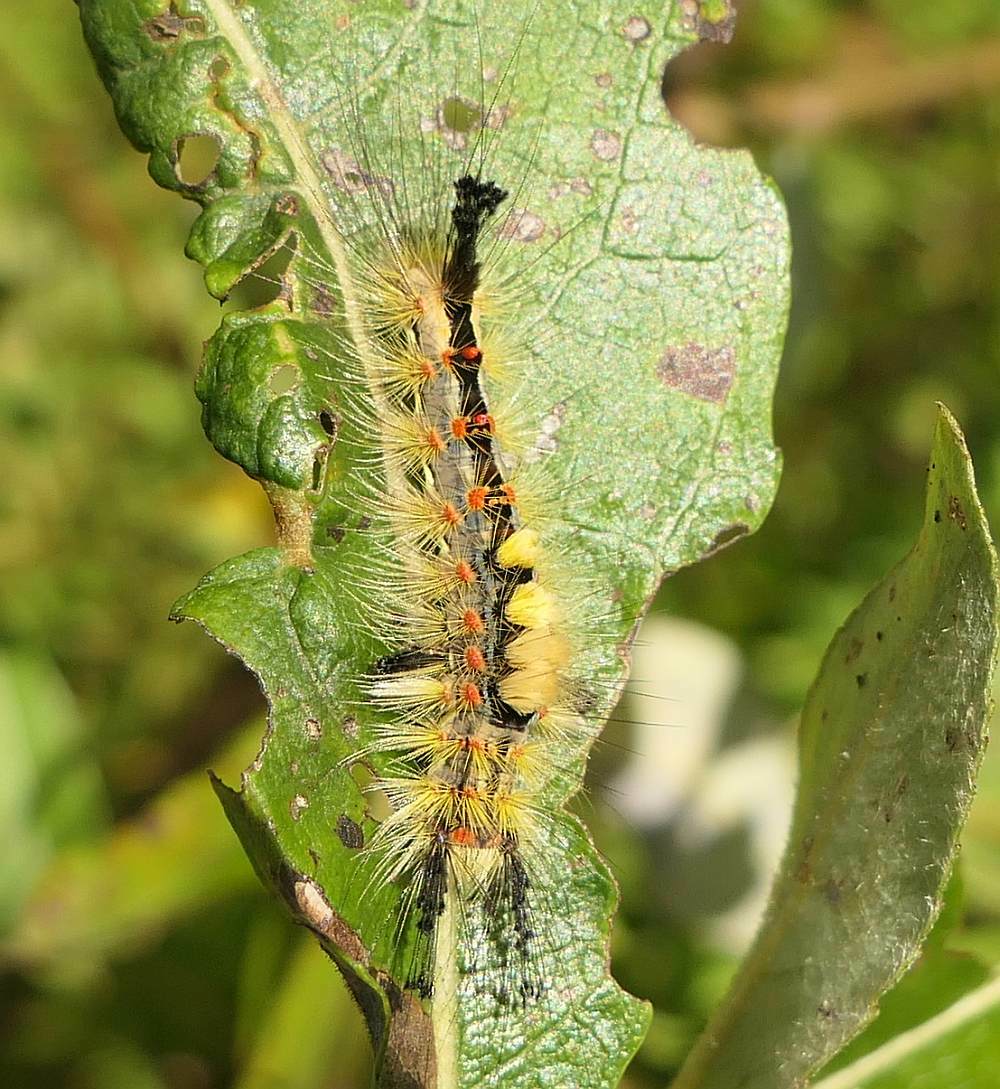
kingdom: Animalia
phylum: Arthropoda
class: Insecta
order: Lepidoptera
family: Erebidae
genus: Orgyia
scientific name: Orgyia antiqua
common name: Vapourer
